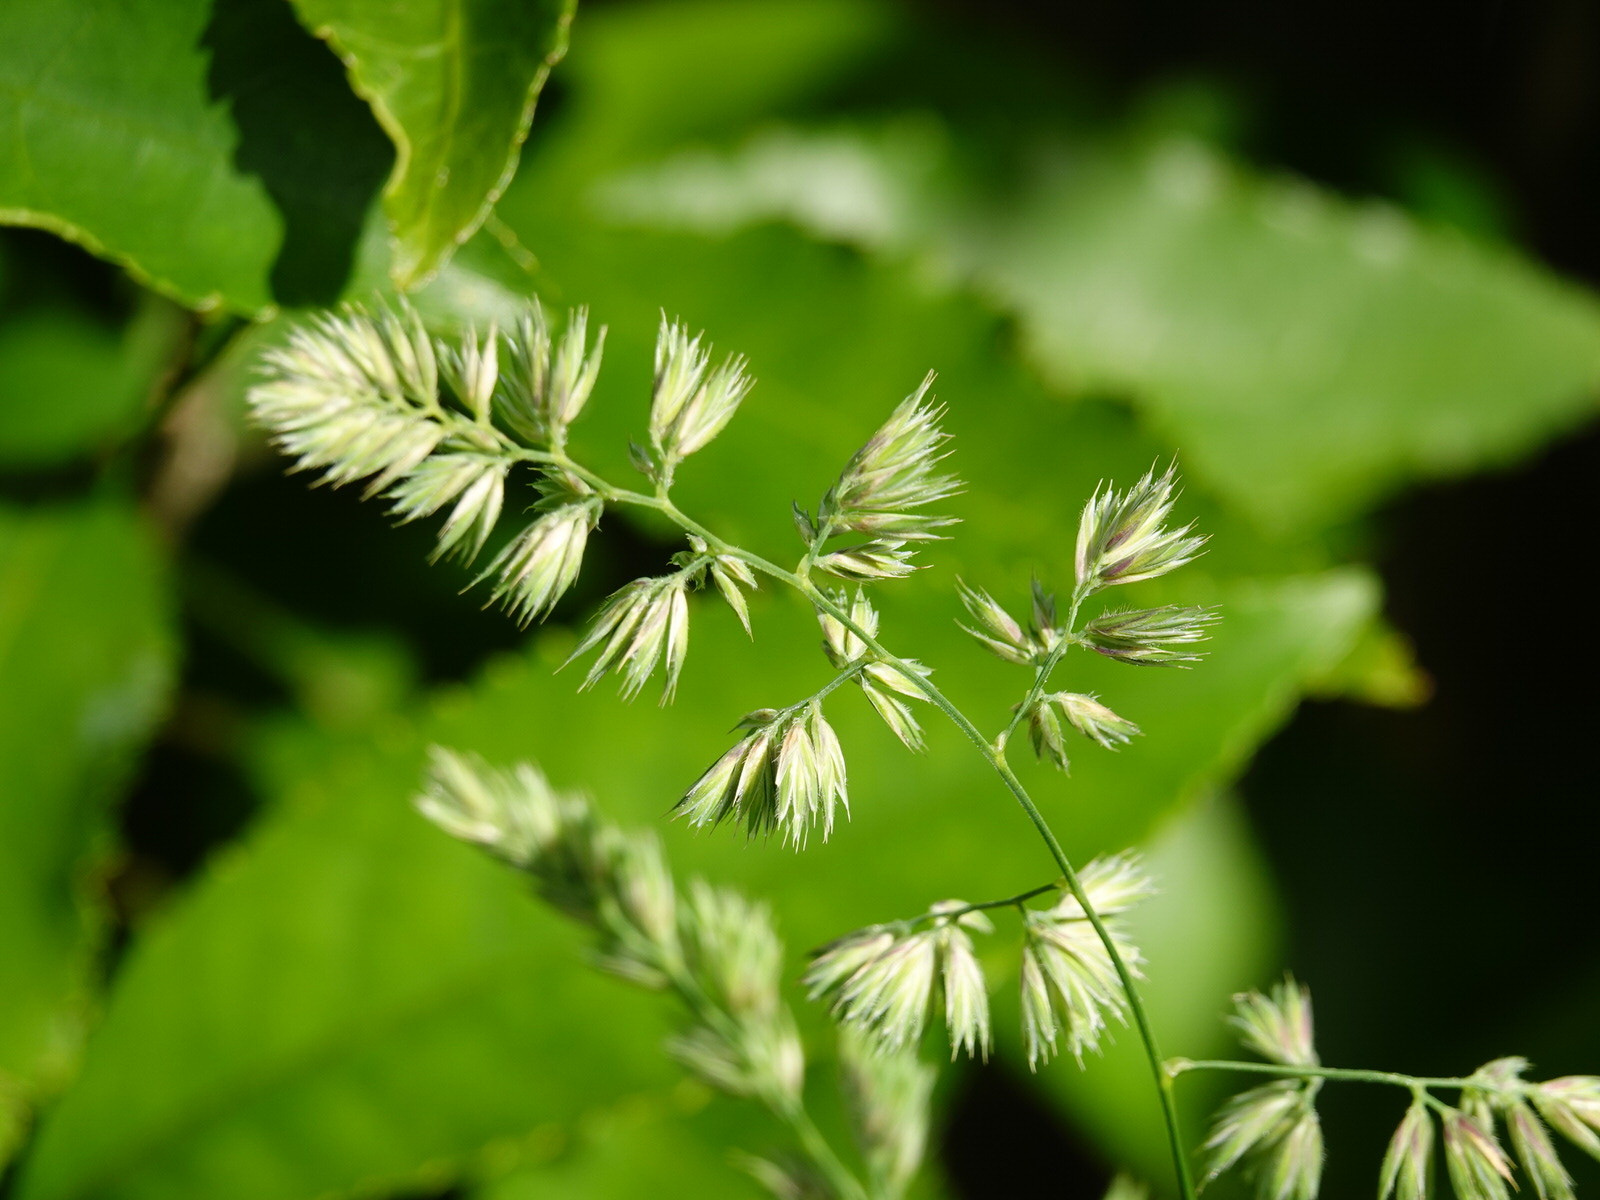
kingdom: Plantae
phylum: Tracheophyta
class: Liliopsida
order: Poales
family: Poaceae
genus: Dactylis
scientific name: Dactylis glomerata
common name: Orchardgrass
